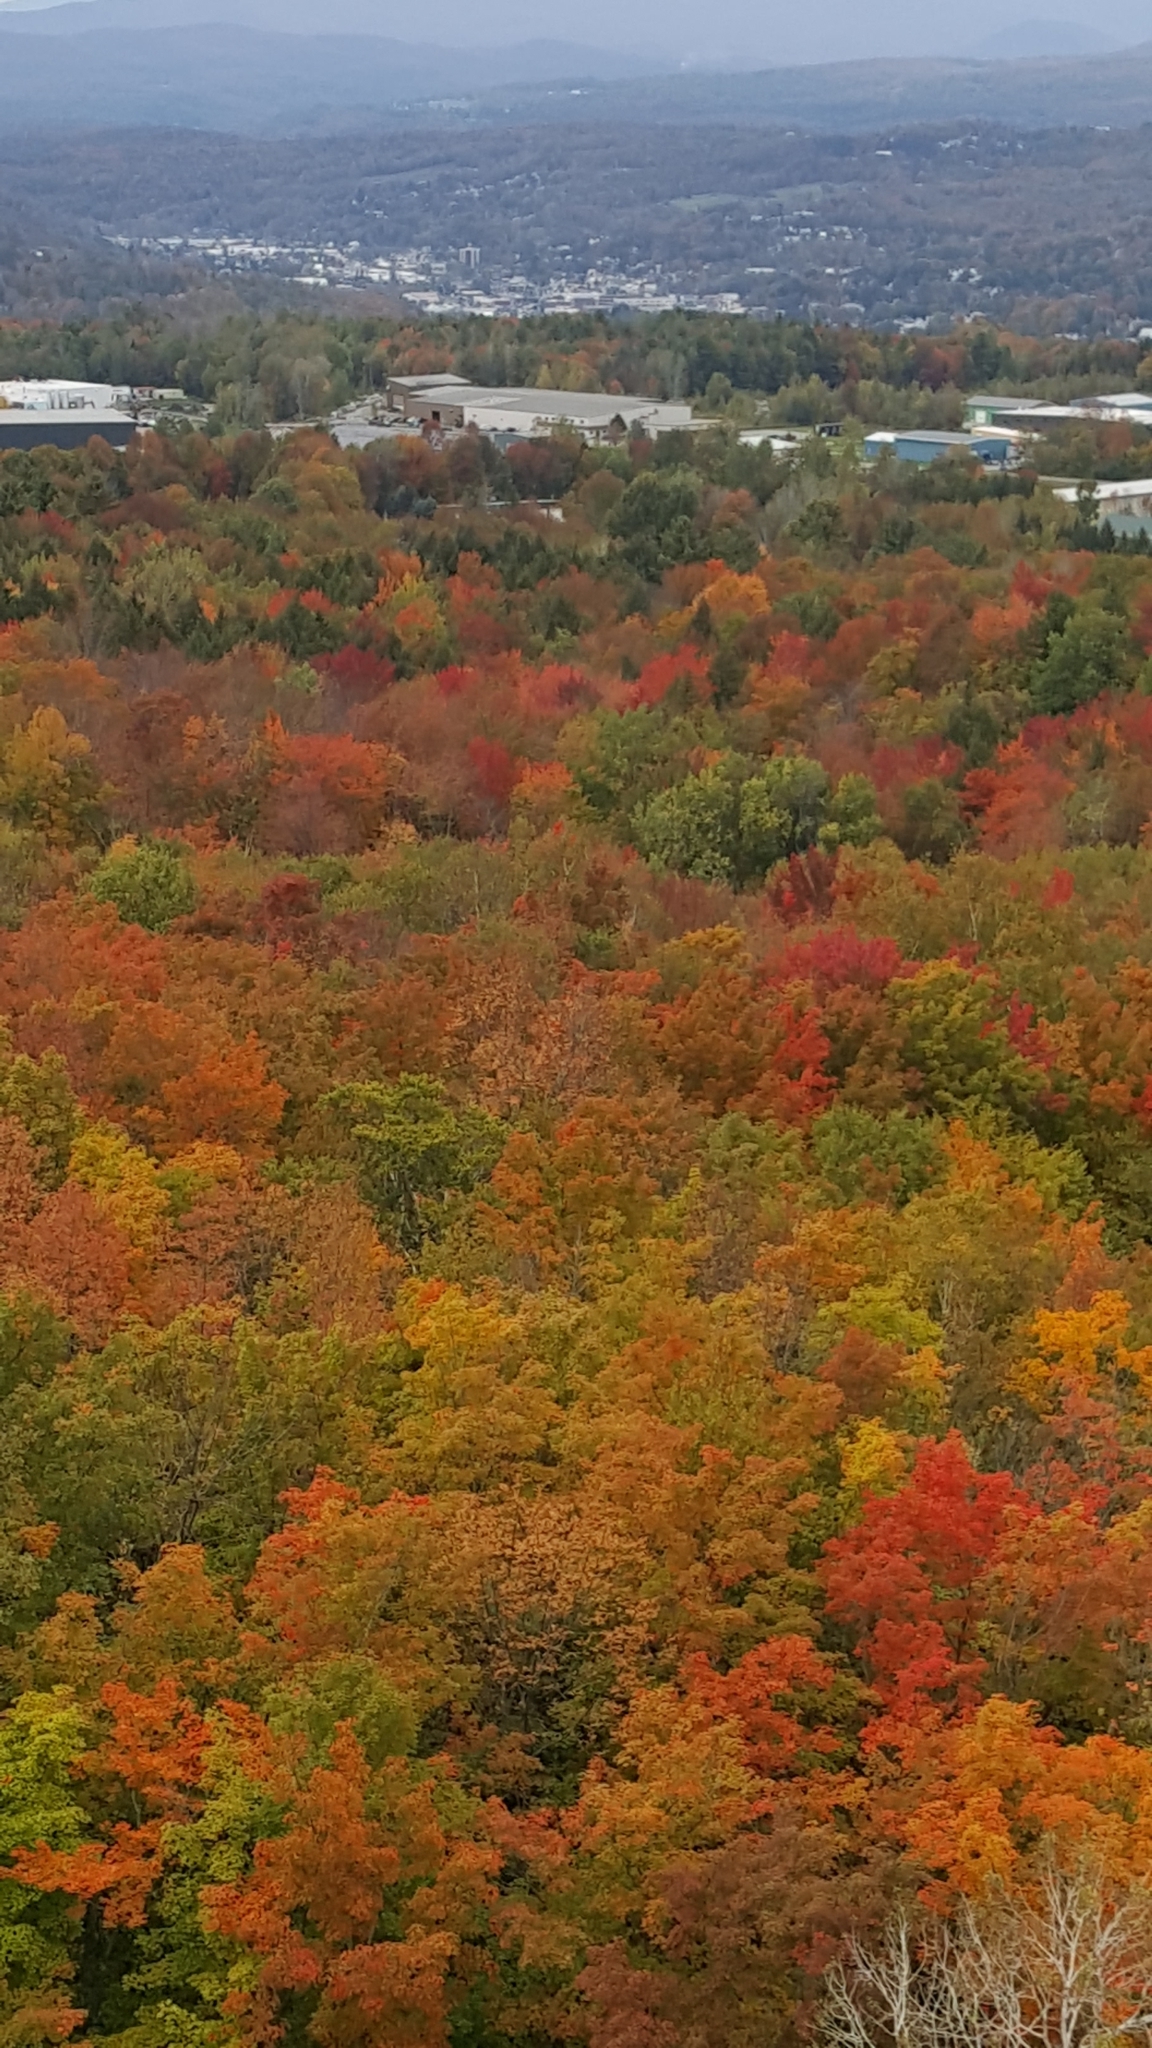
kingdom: Plantae
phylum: Tracheophyta
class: Magnoliopsida
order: Sapindales
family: Sapindaceae
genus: Acer
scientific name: Acer rubrum
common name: Red maple
